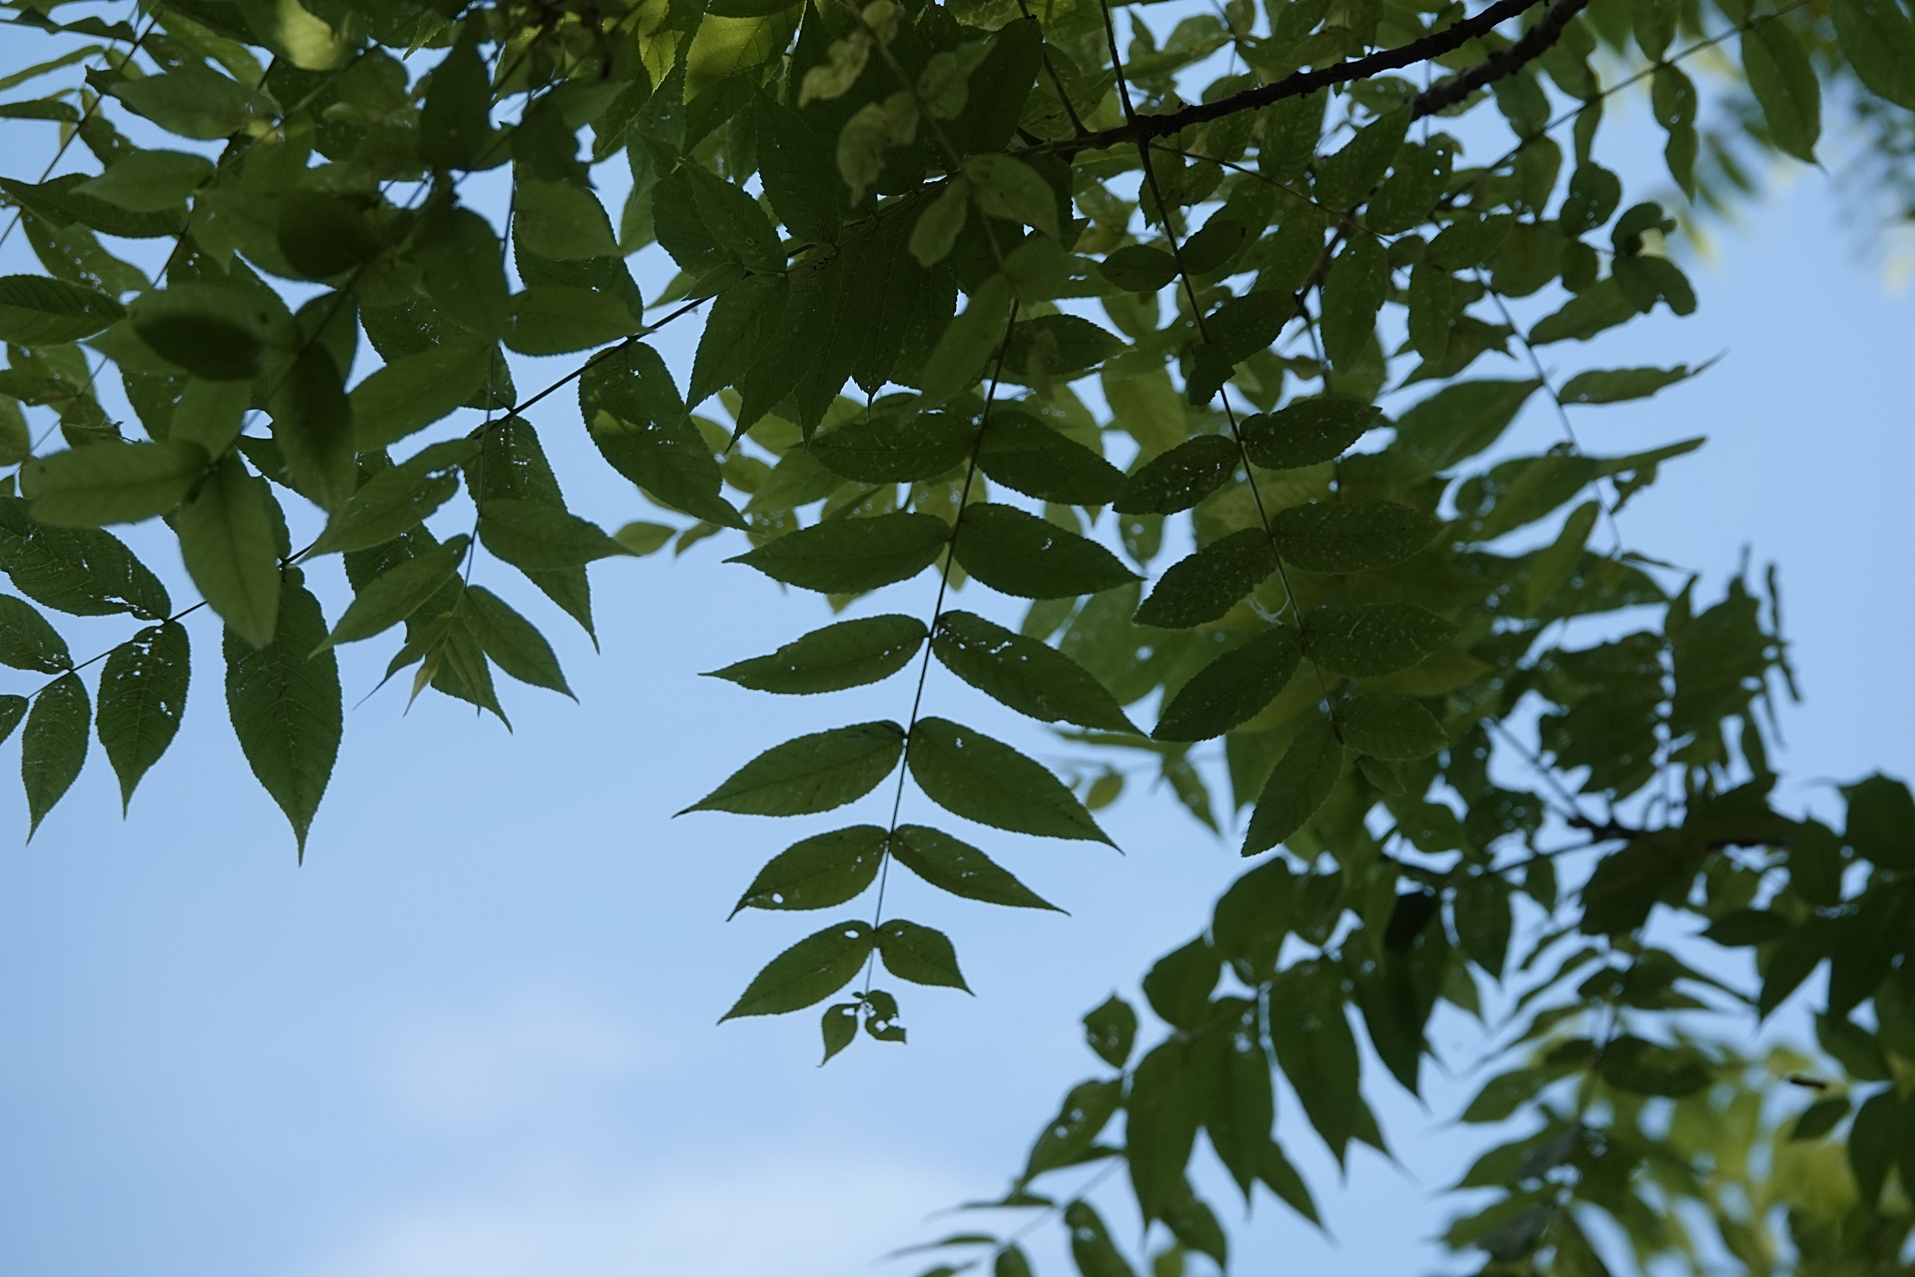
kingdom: Plantae
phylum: Tracheophyta
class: Magnoliopsida
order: Fagales
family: Juglandaceae
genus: Juglans
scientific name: Juglans nigra
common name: Black walnut
